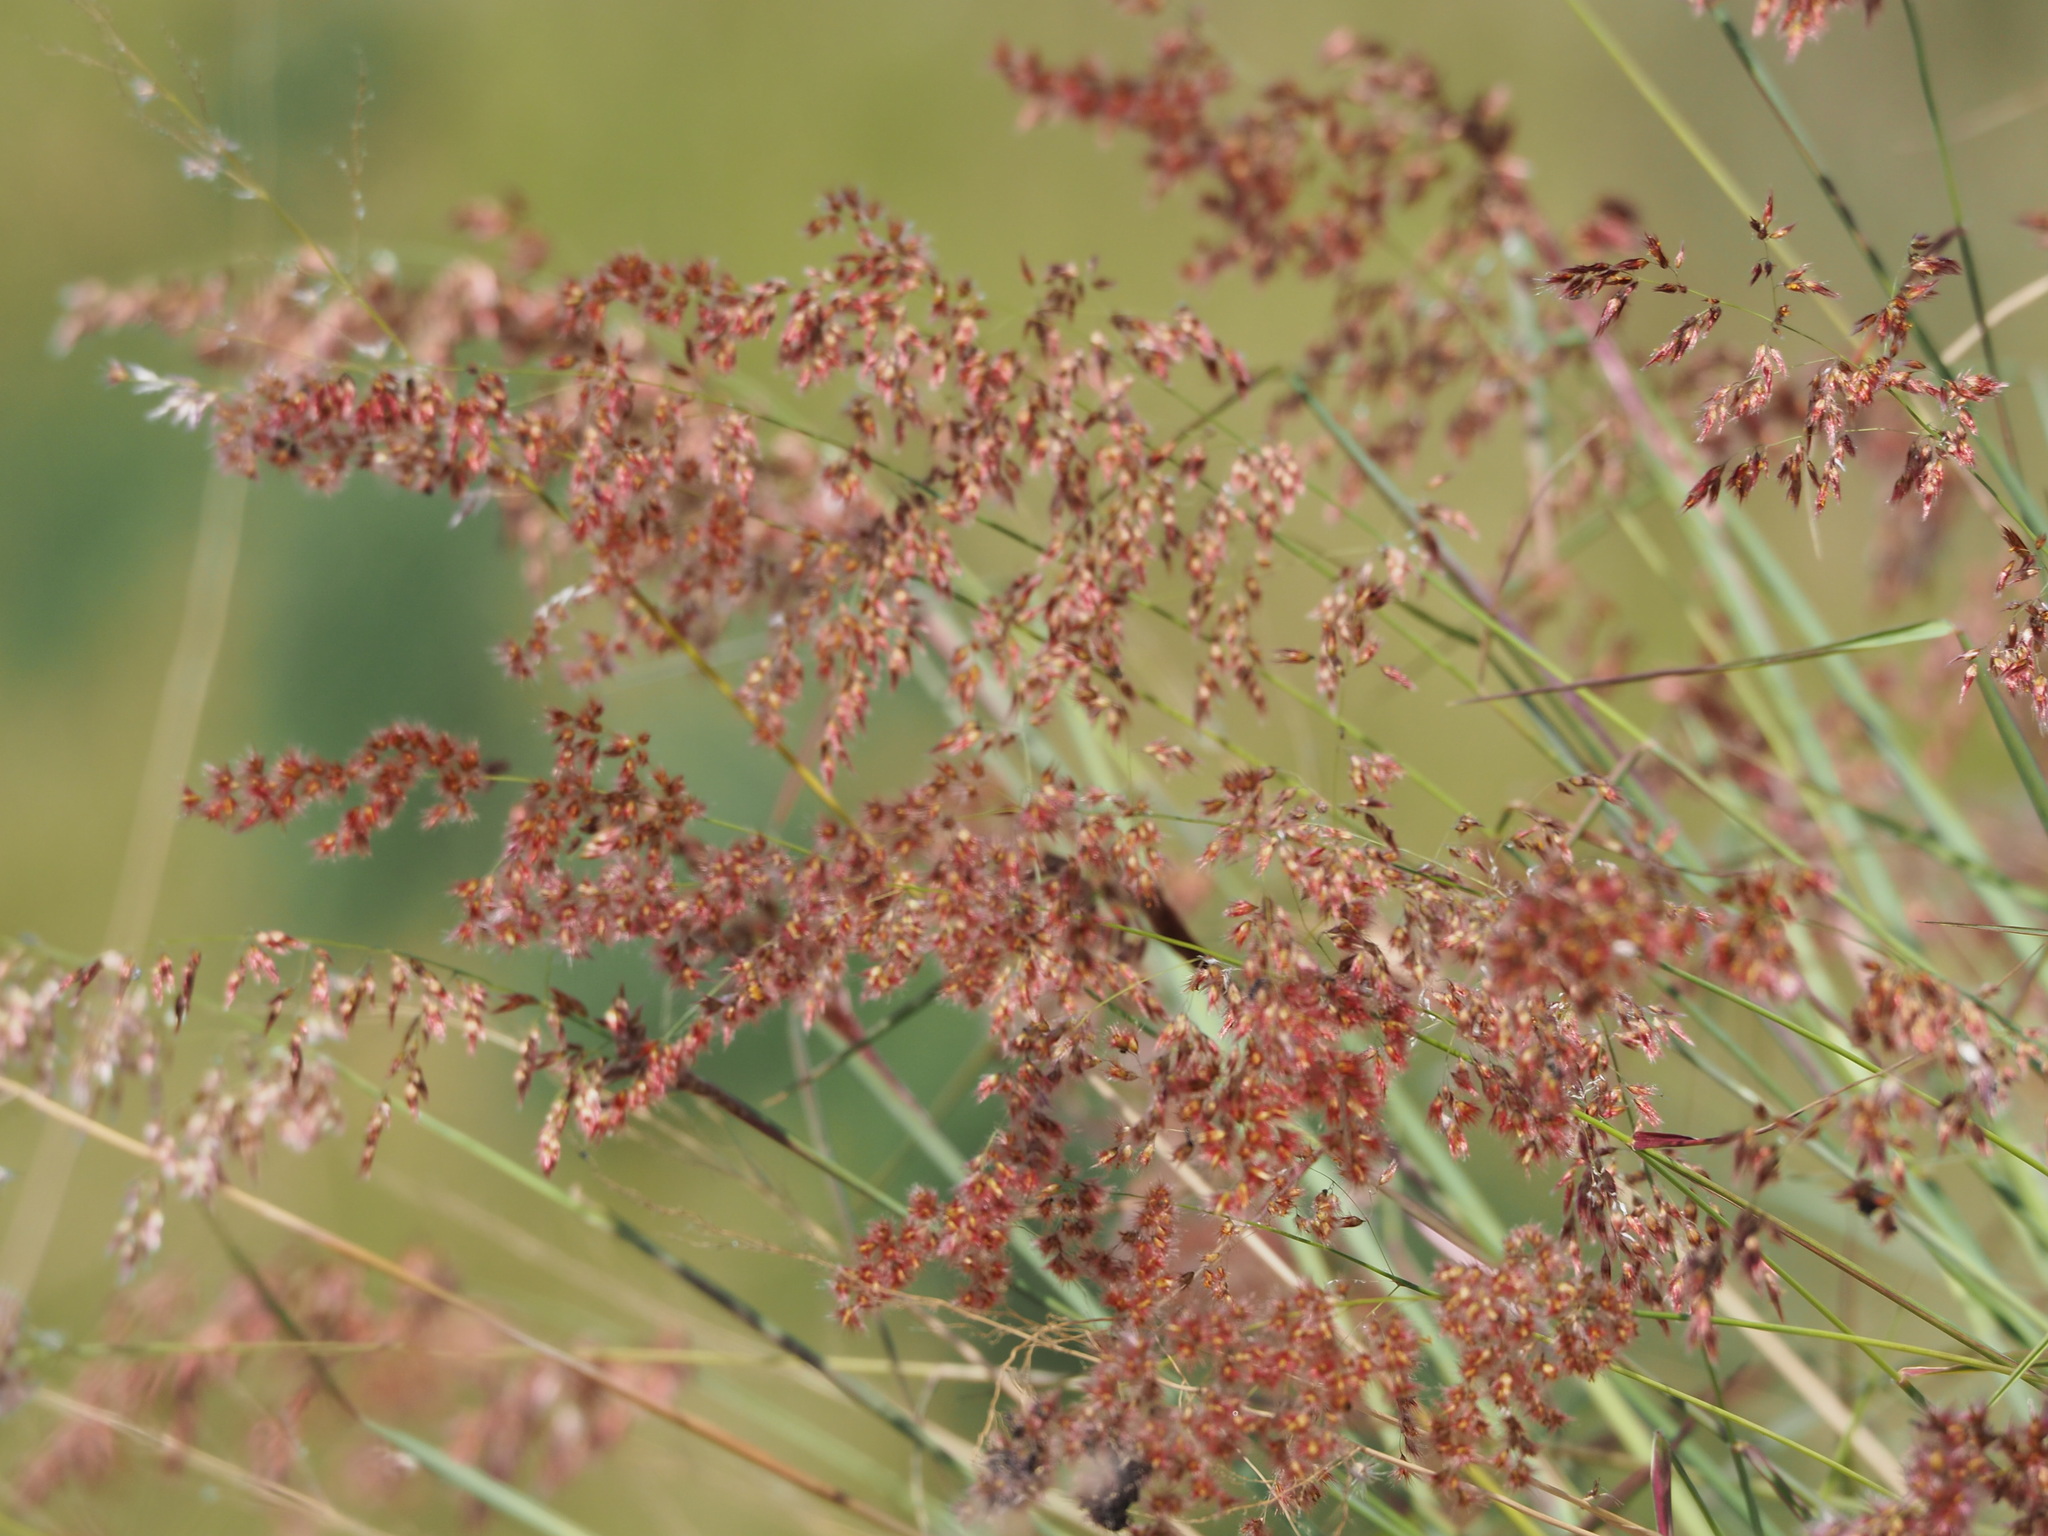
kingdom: Plantae
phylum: Tracheophyta
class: Liliopsida
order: Poales
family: Poaceae
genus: Melinis
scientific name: Melinis repens
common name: Rose natal grass
